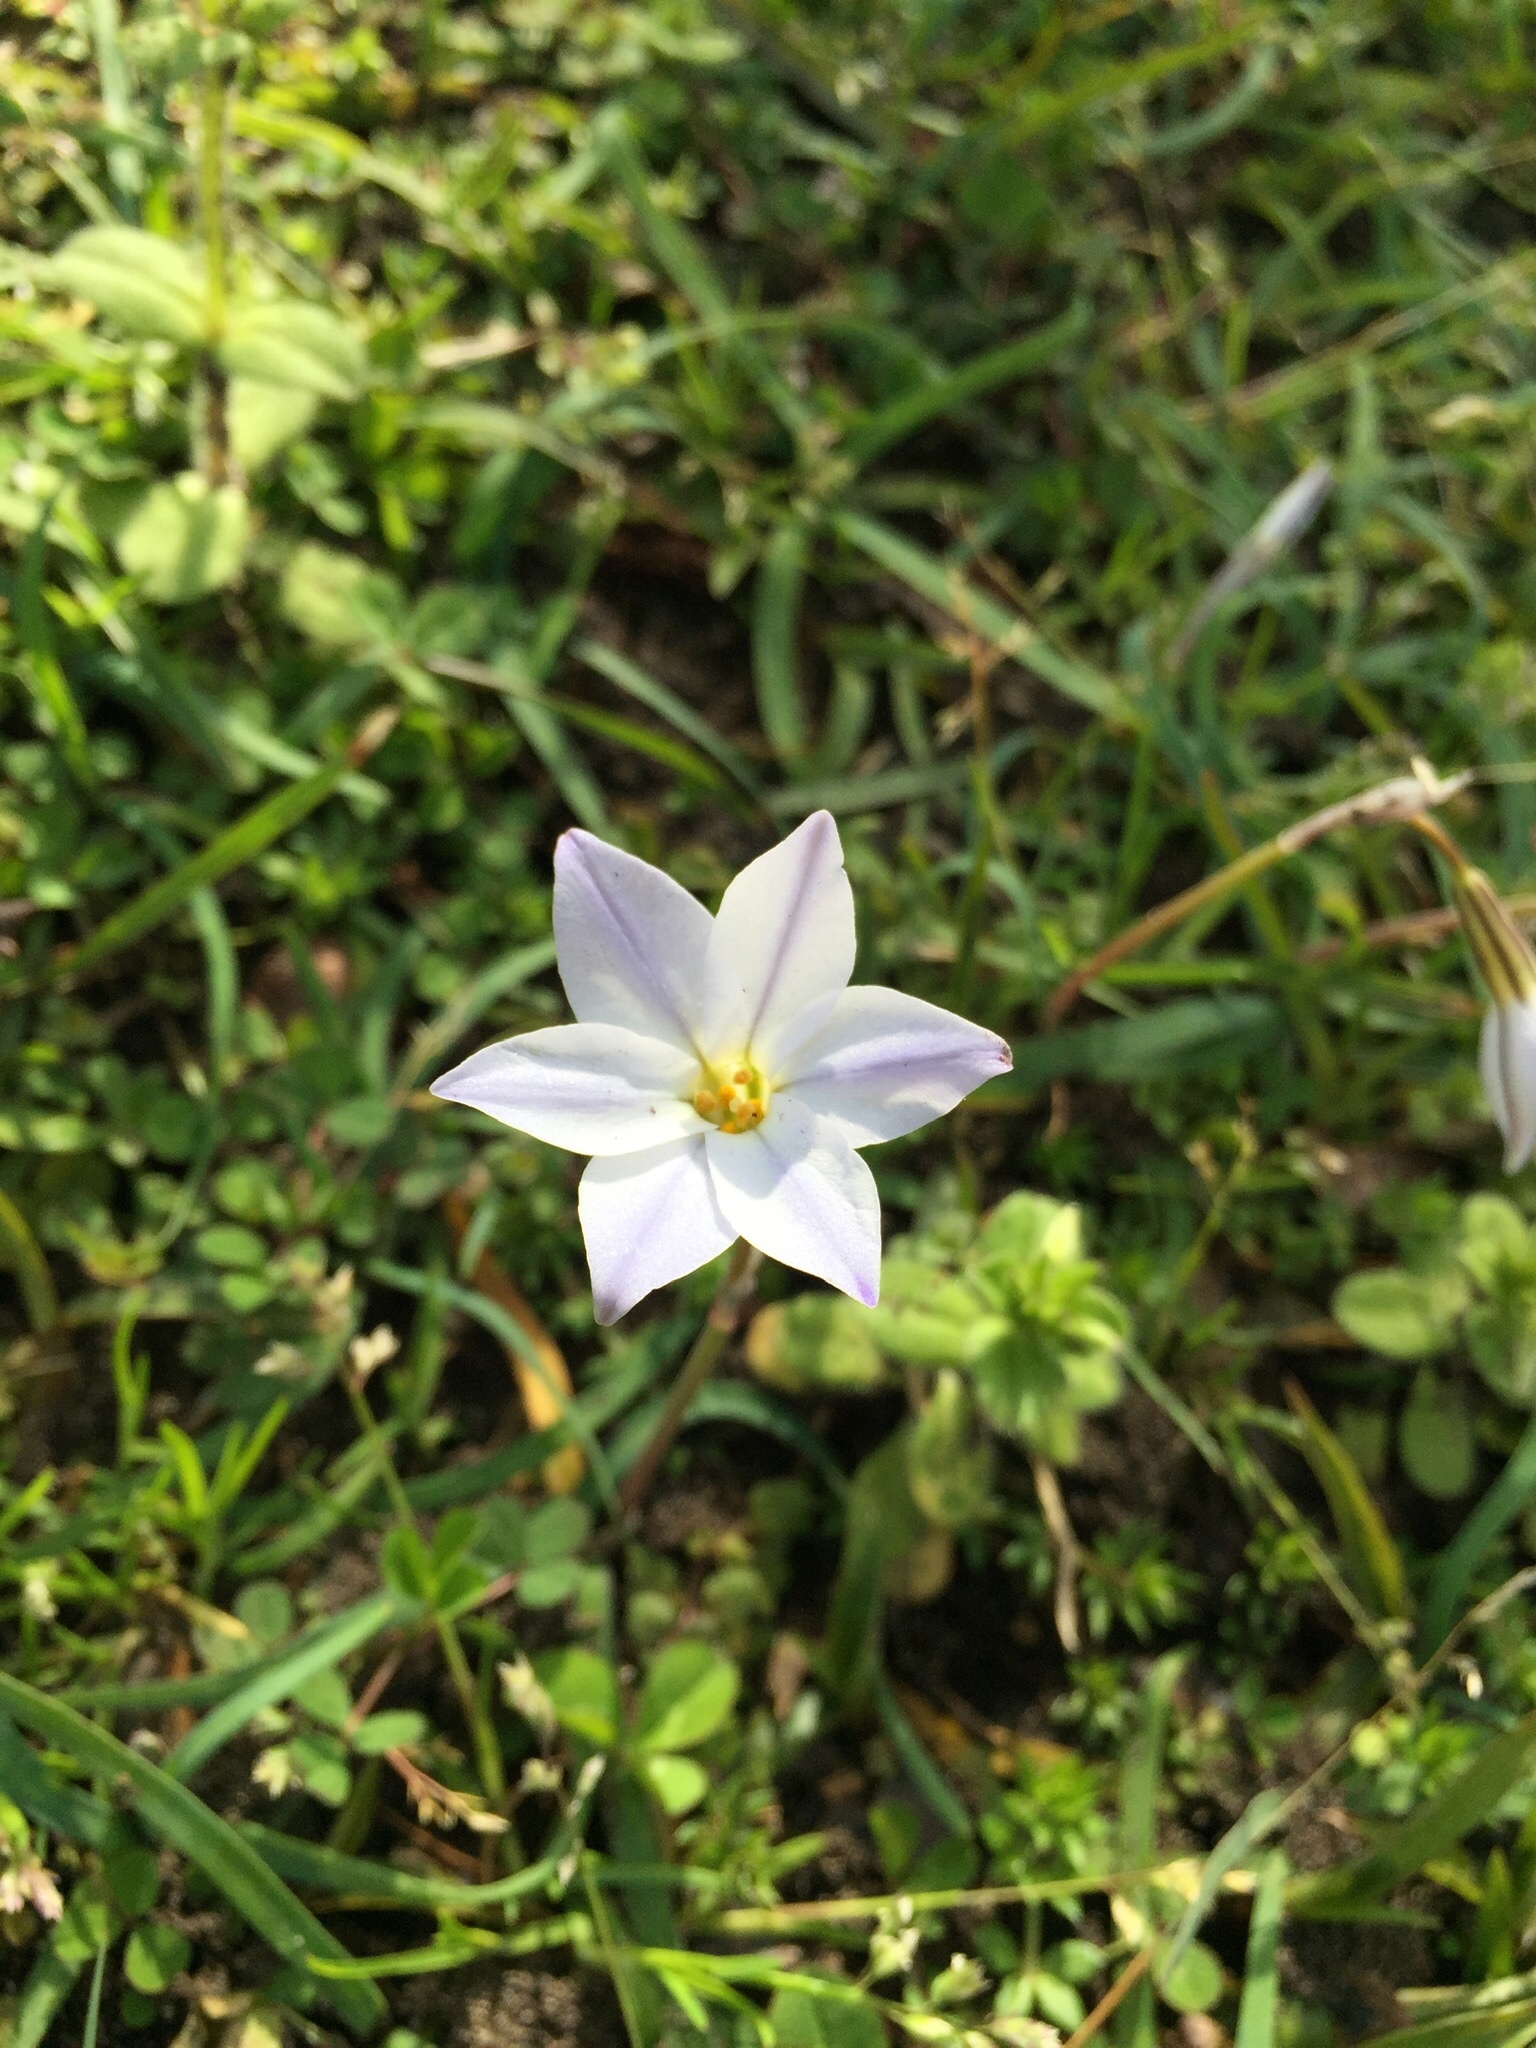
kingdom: Plantae
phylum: Tracheophyta
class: Liliopsida
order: Asparagales
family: Amaryllidaceae
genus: Ipheion
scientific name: Ipheion uniflorum
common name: Spring starflower
